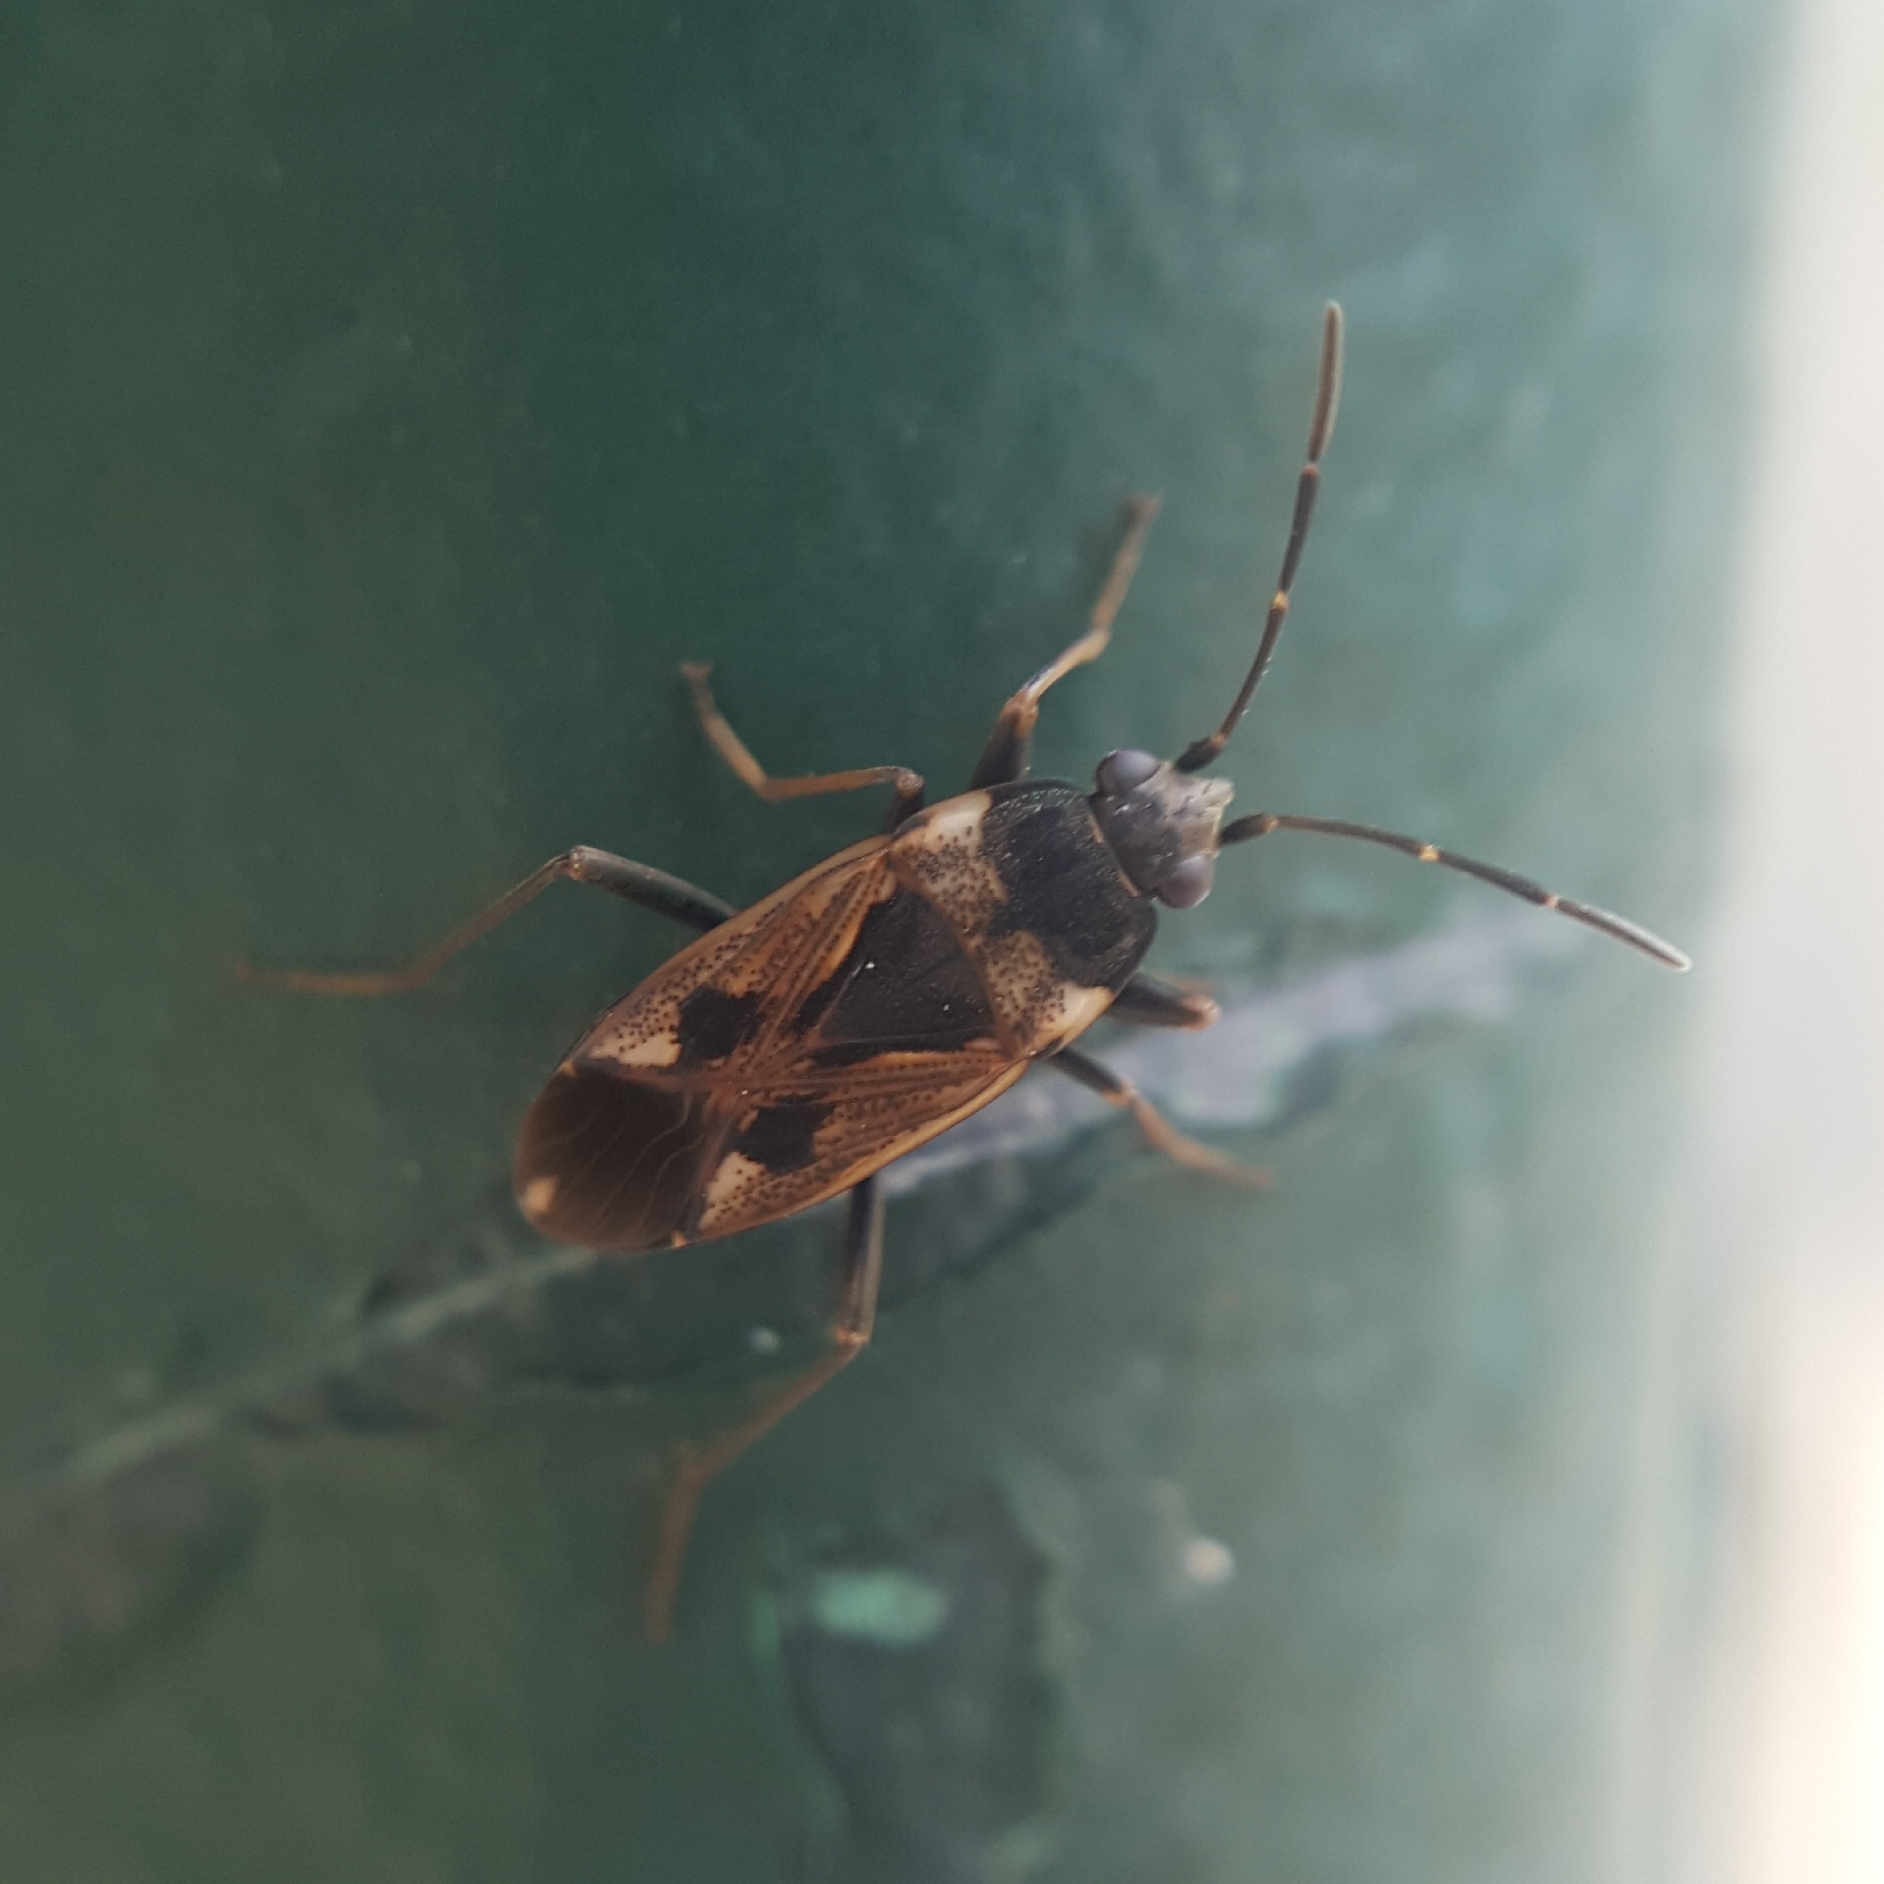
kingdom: Animalia
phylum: Arthropoda
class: Insecta
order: Hemiptera
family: Rhyparochromidae
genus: Rhyparochromus
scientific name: Rhyparochromus vulgaris
